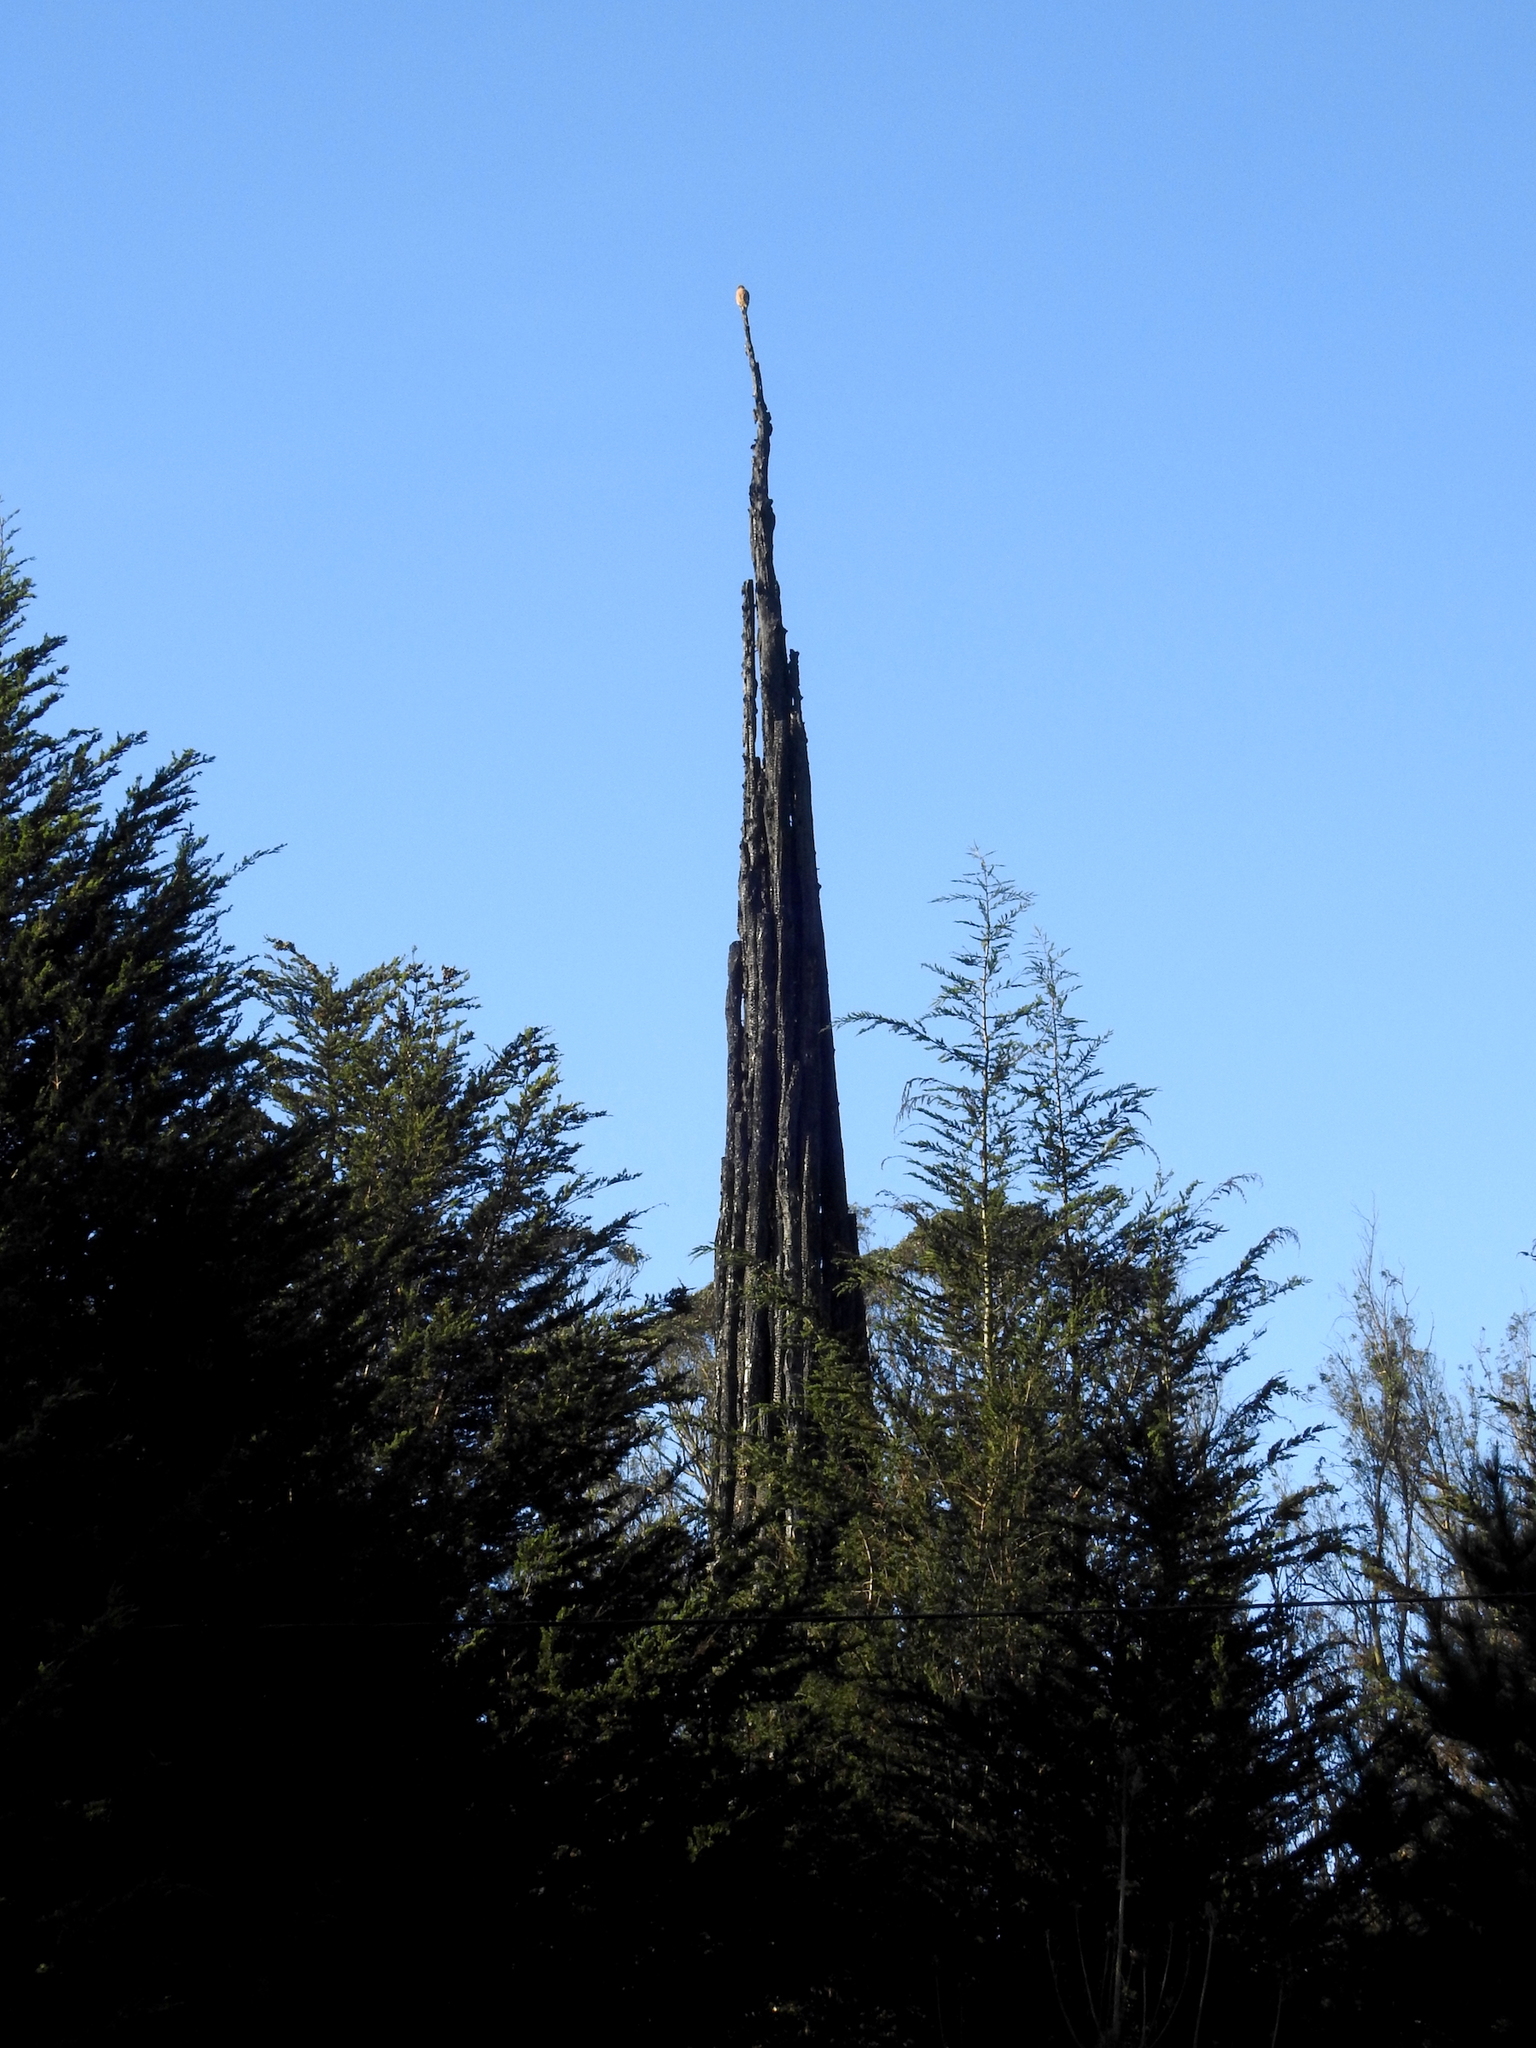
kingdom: Animalia
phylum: Chordata
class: Aves
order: Accipitriformes
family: Accipitridae
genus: Buteo
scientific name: Buteo lineatus
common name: Red-shouldered hawk
